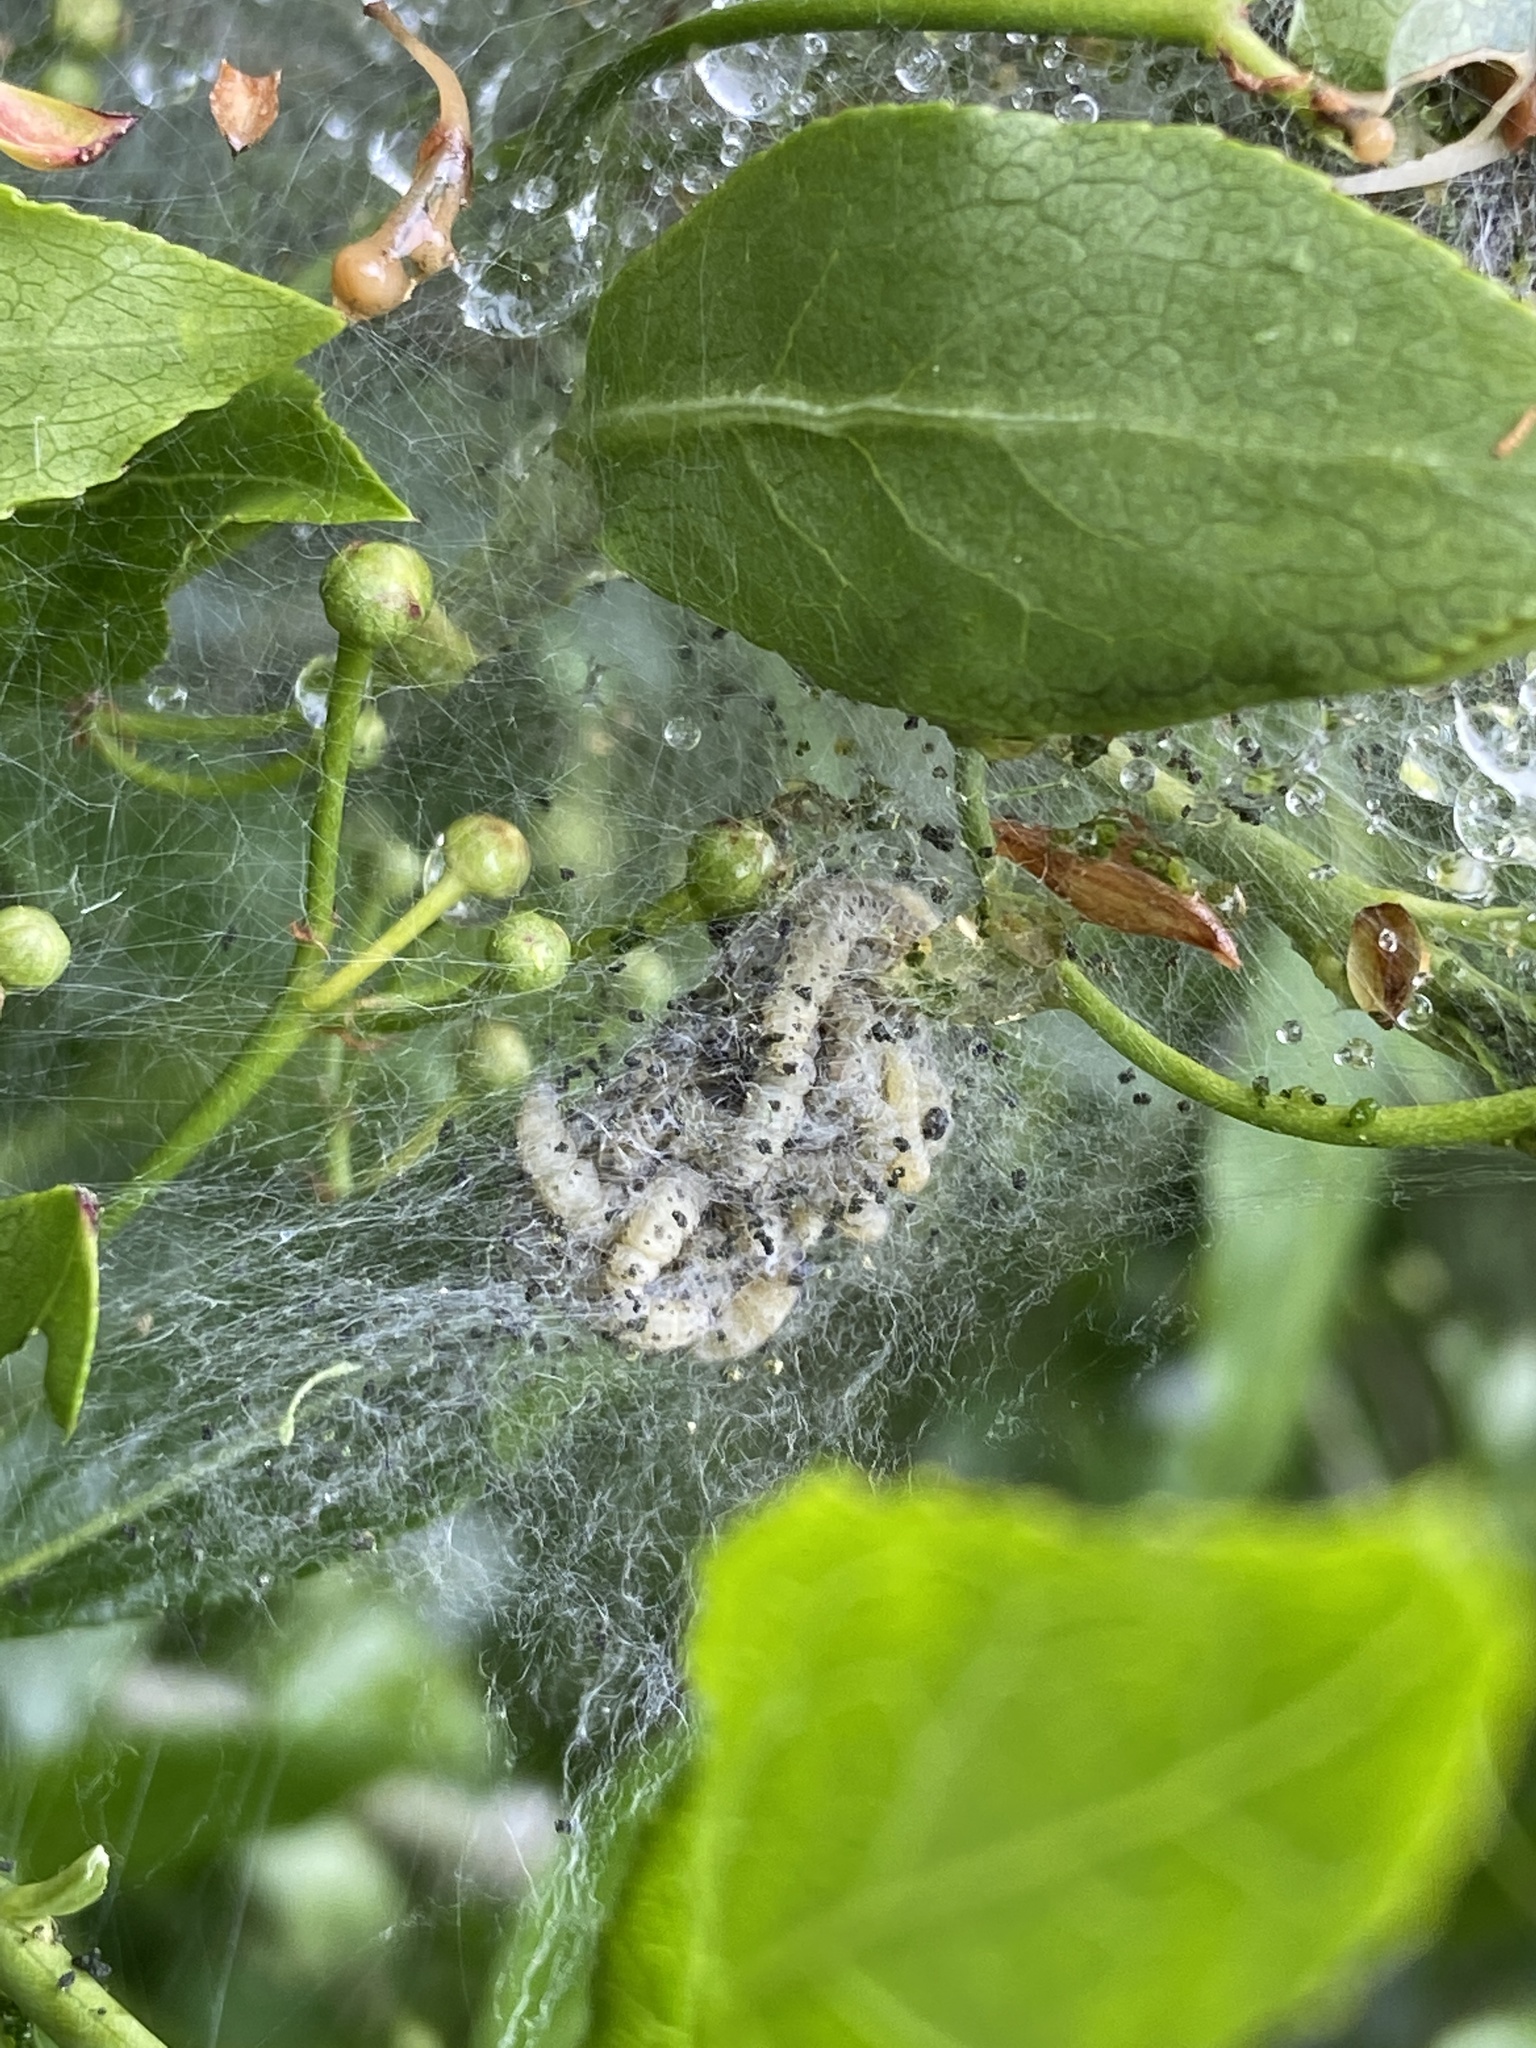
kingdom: Animalia
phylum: Arthropoda
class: Insecta
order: Lepidoptera
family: Yponomeutidae
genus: Yponomeuta
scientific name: Yponomeuta cagnagellus
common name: Spindle ermine
